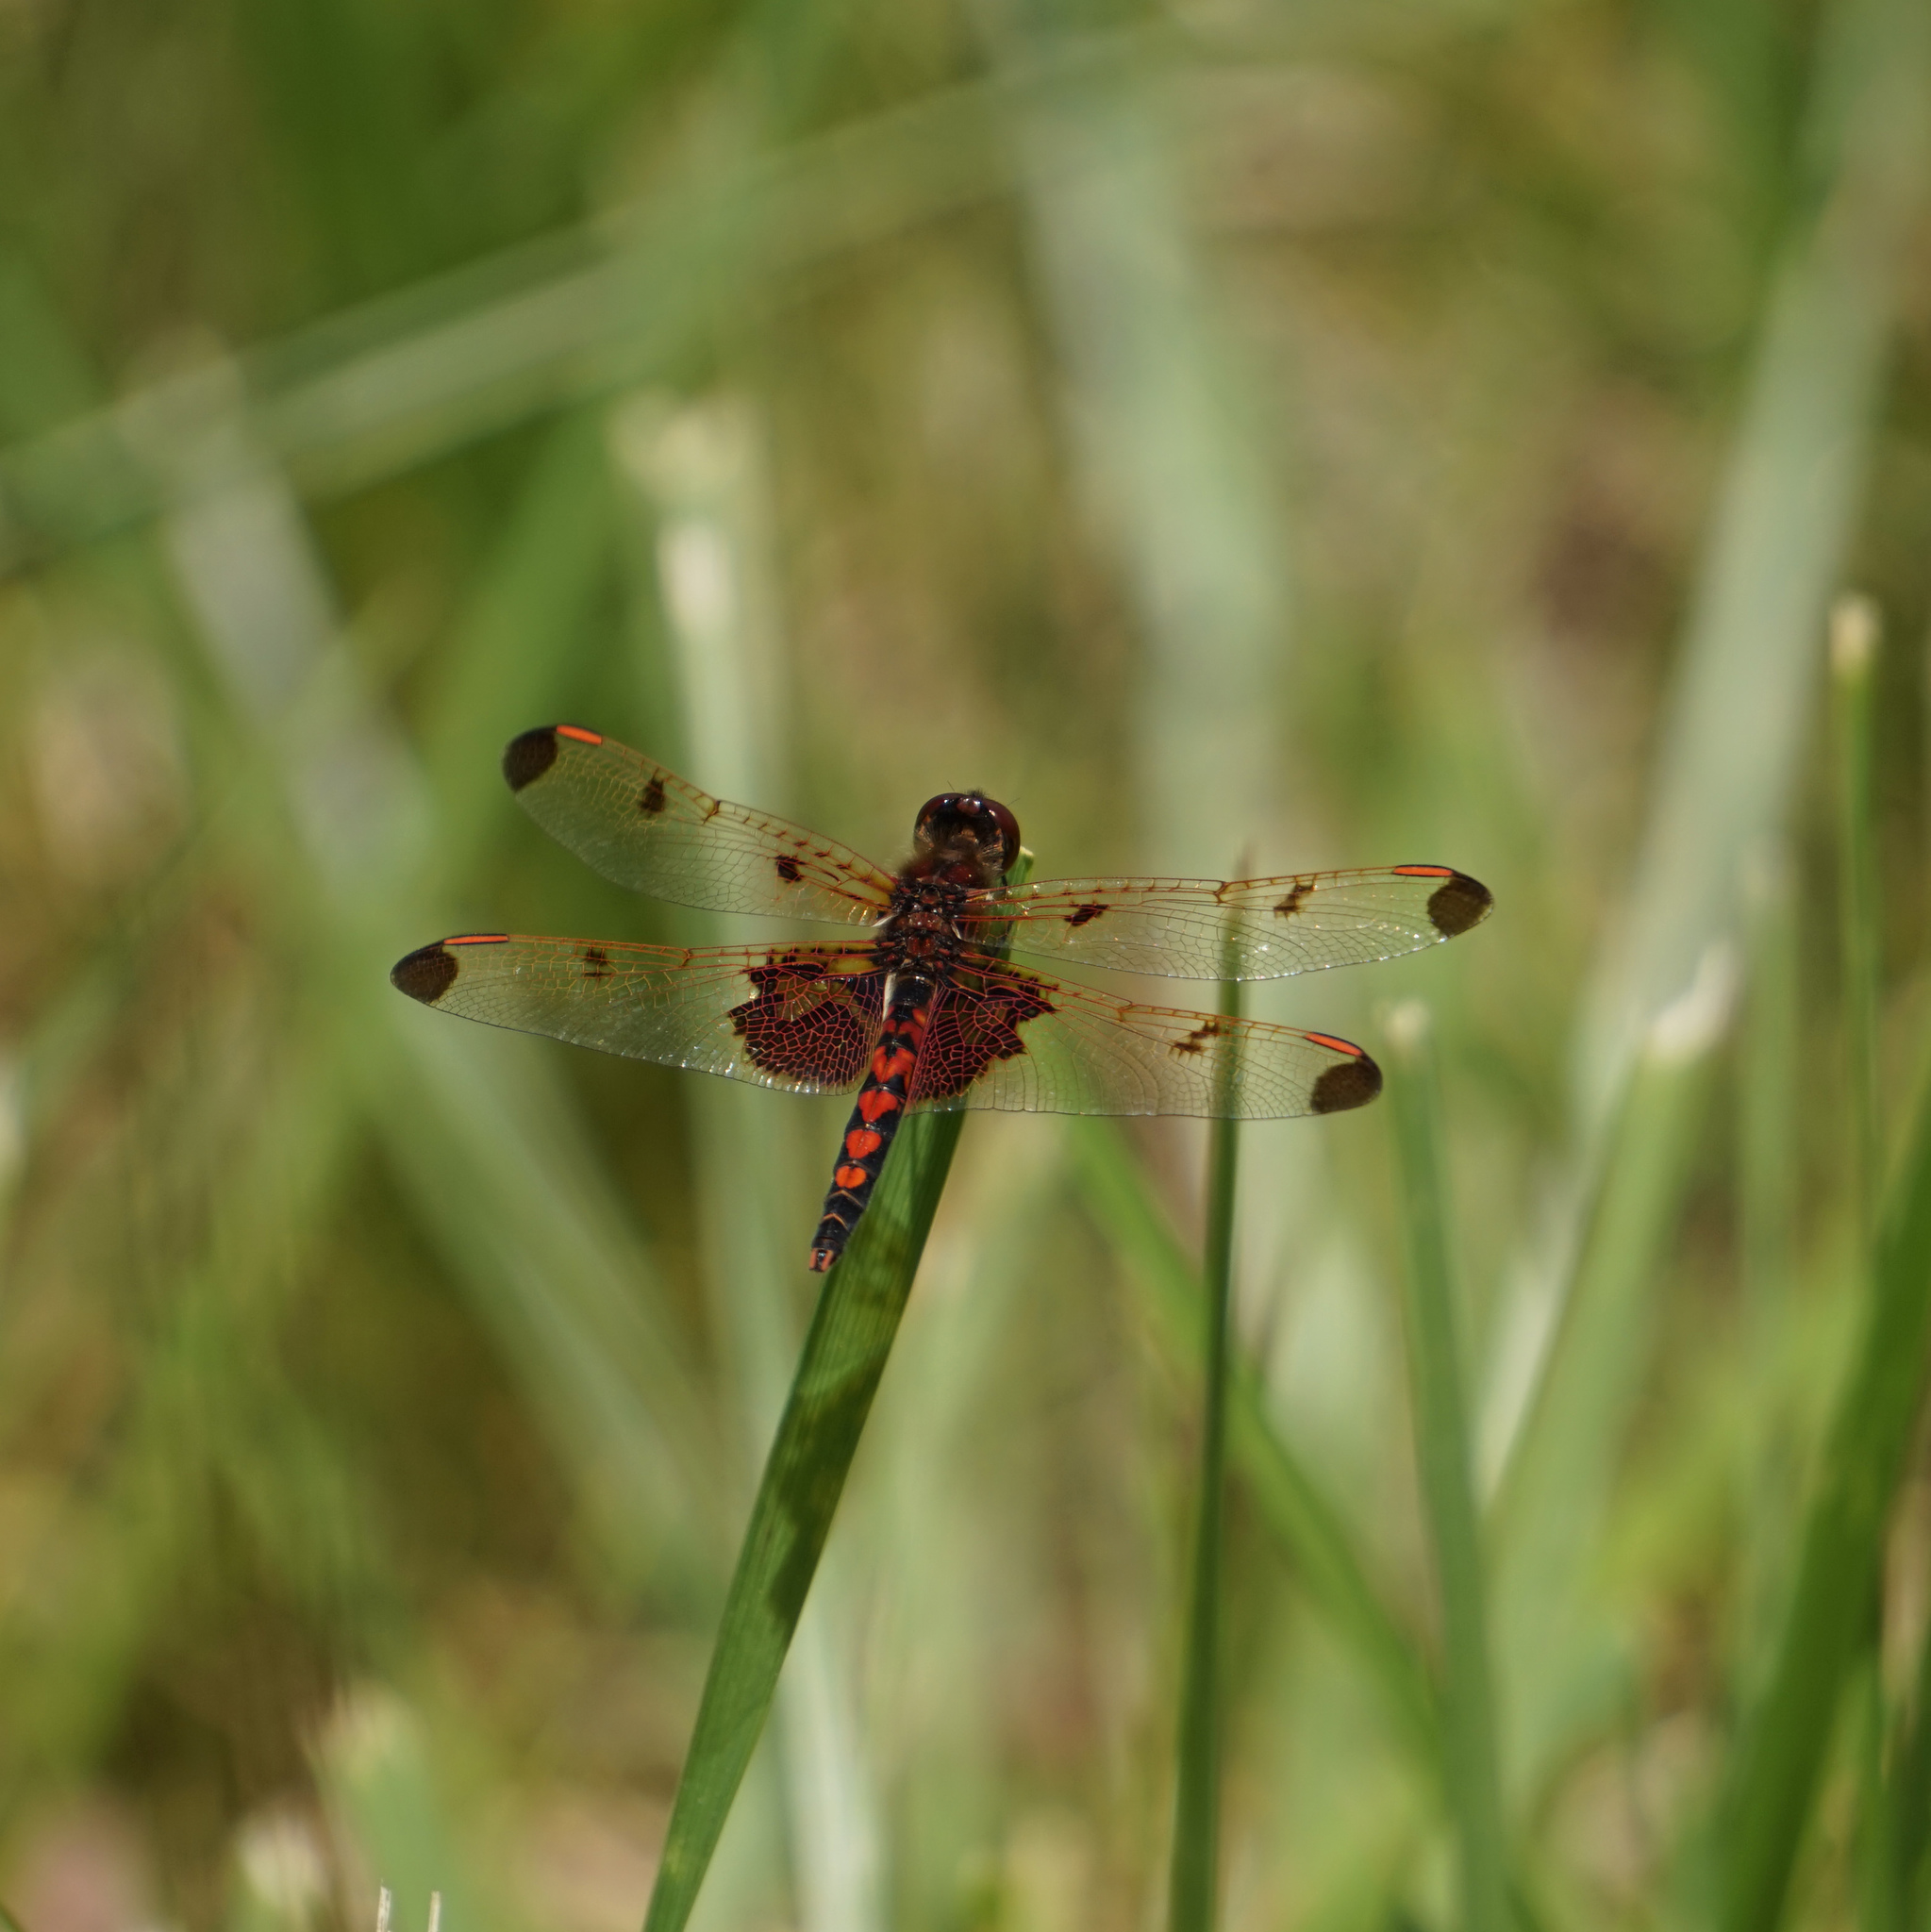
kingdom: Animalia
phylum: Arthropoda
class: Insecta
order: Odonata
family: Libellulidae
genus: Celithemis
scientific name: Celithemis elisa
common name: Calico pennant
